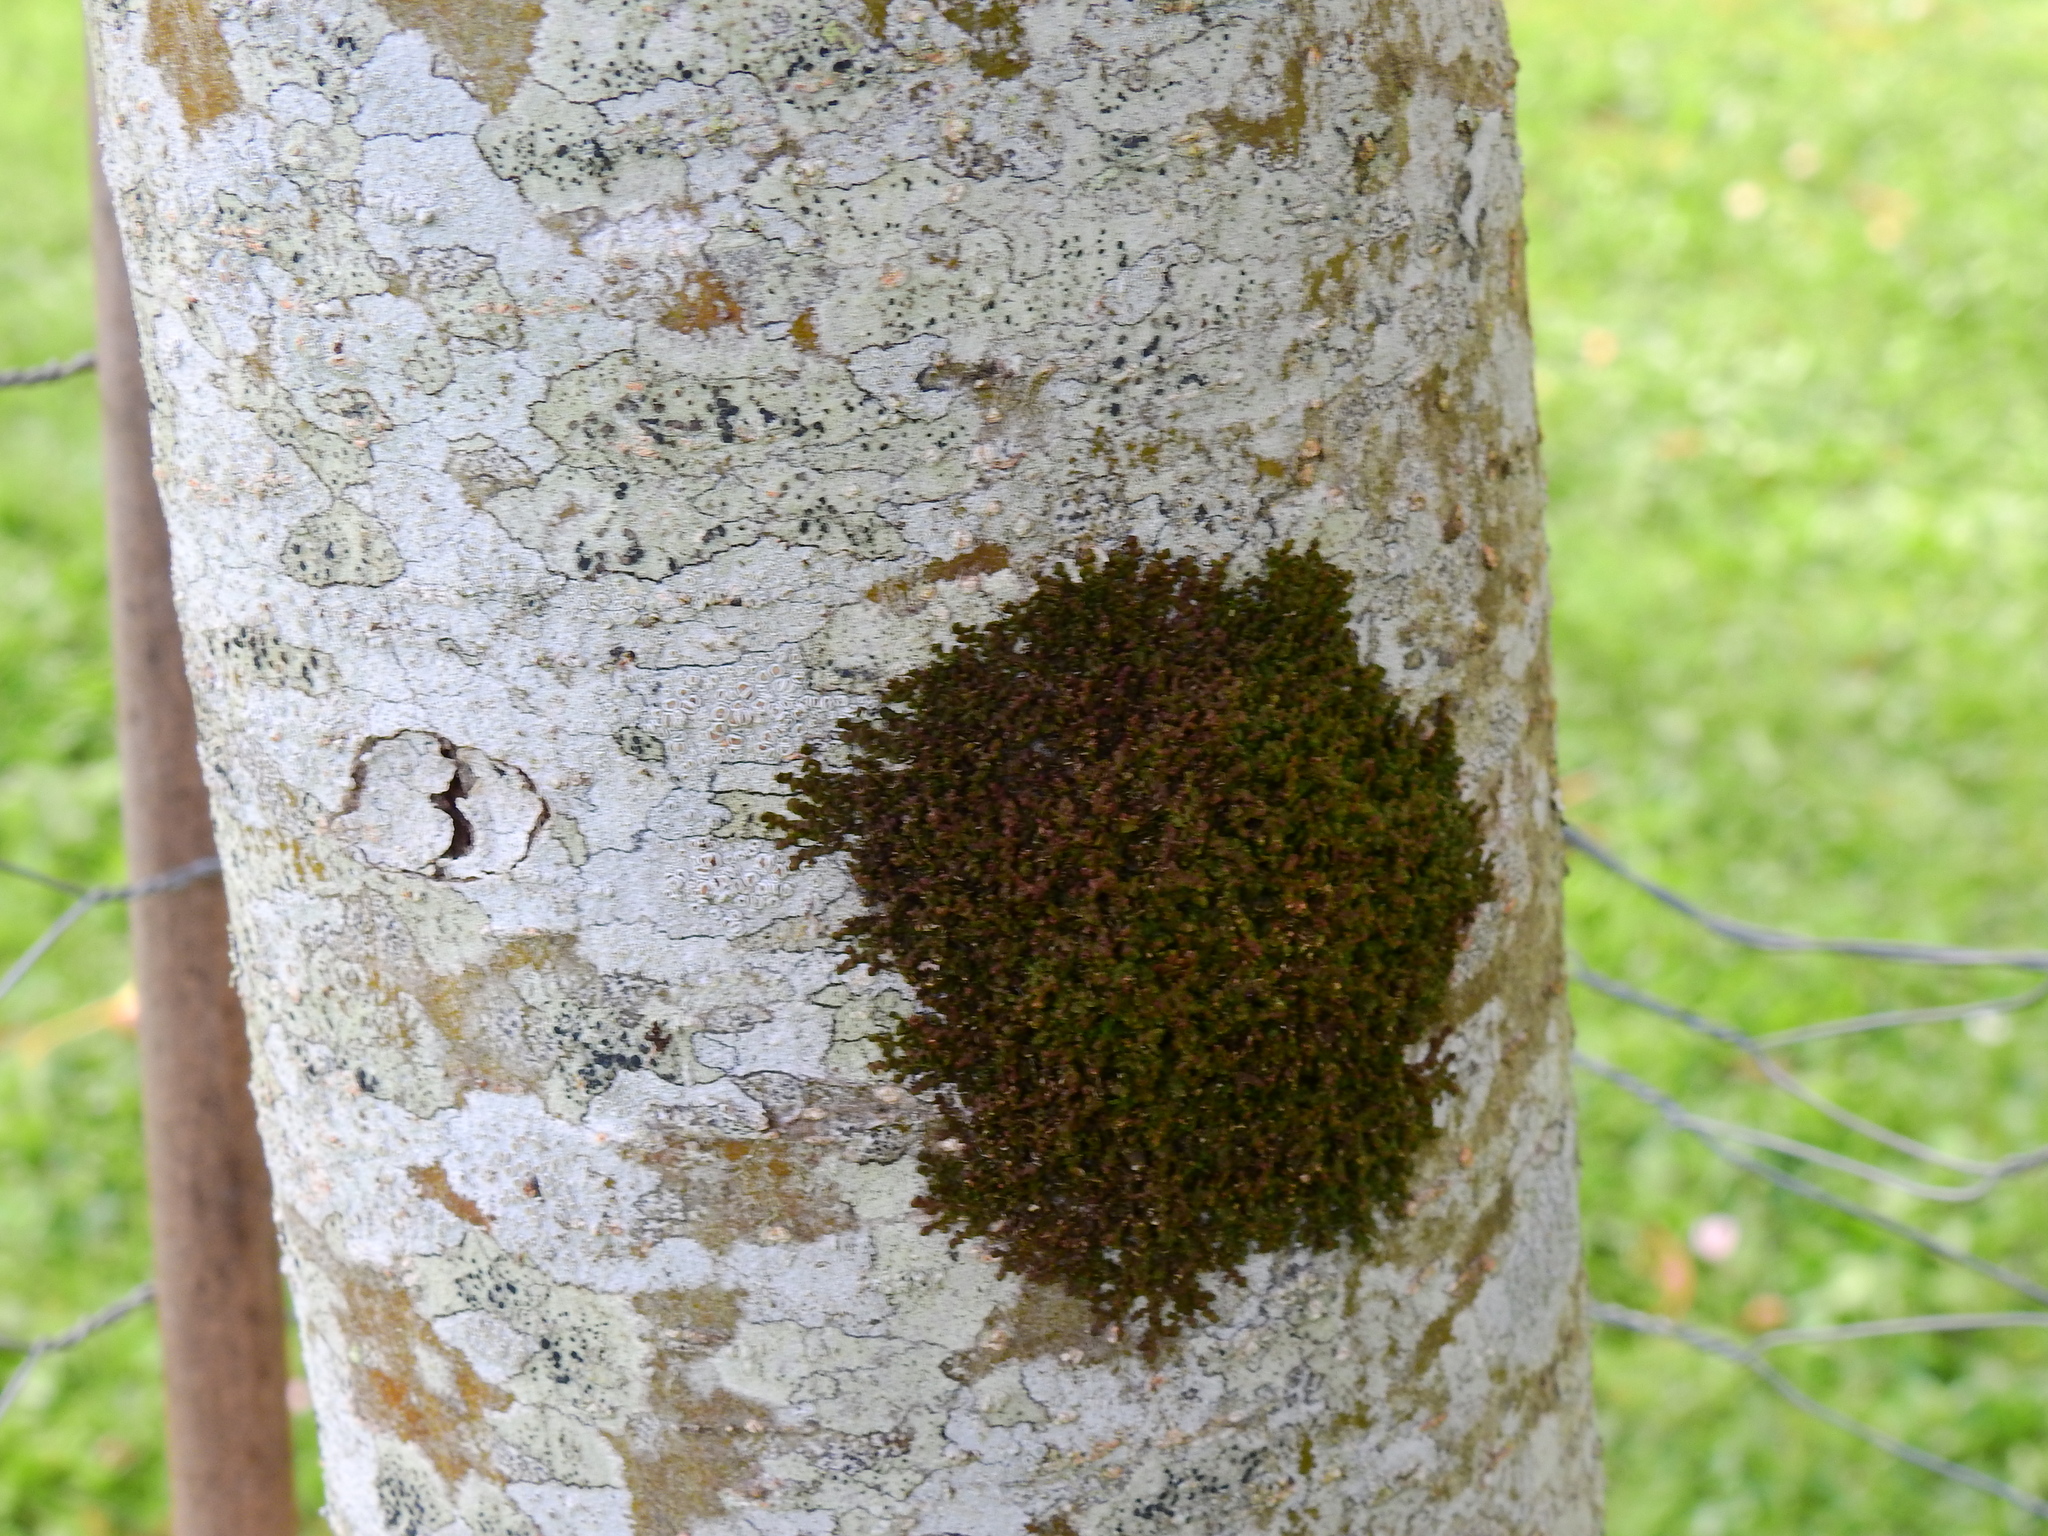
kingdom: Plantae
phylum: Marchantiophyta
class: Jungermanniopsida
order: Porellales
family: Frullaniaceae
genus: Frullania
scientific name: Frullania dilatata
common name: Dilated scalewort
